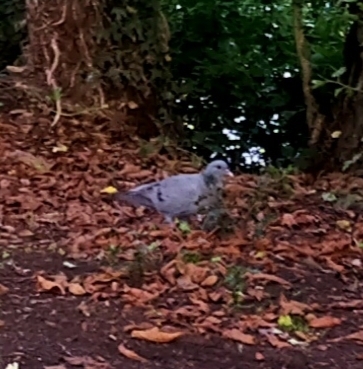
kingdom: Animalia
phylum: Chordata
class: Aves
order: Columbiformes
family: Columbidae
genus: Columba
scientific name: Columba oenas
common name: Stock dove
